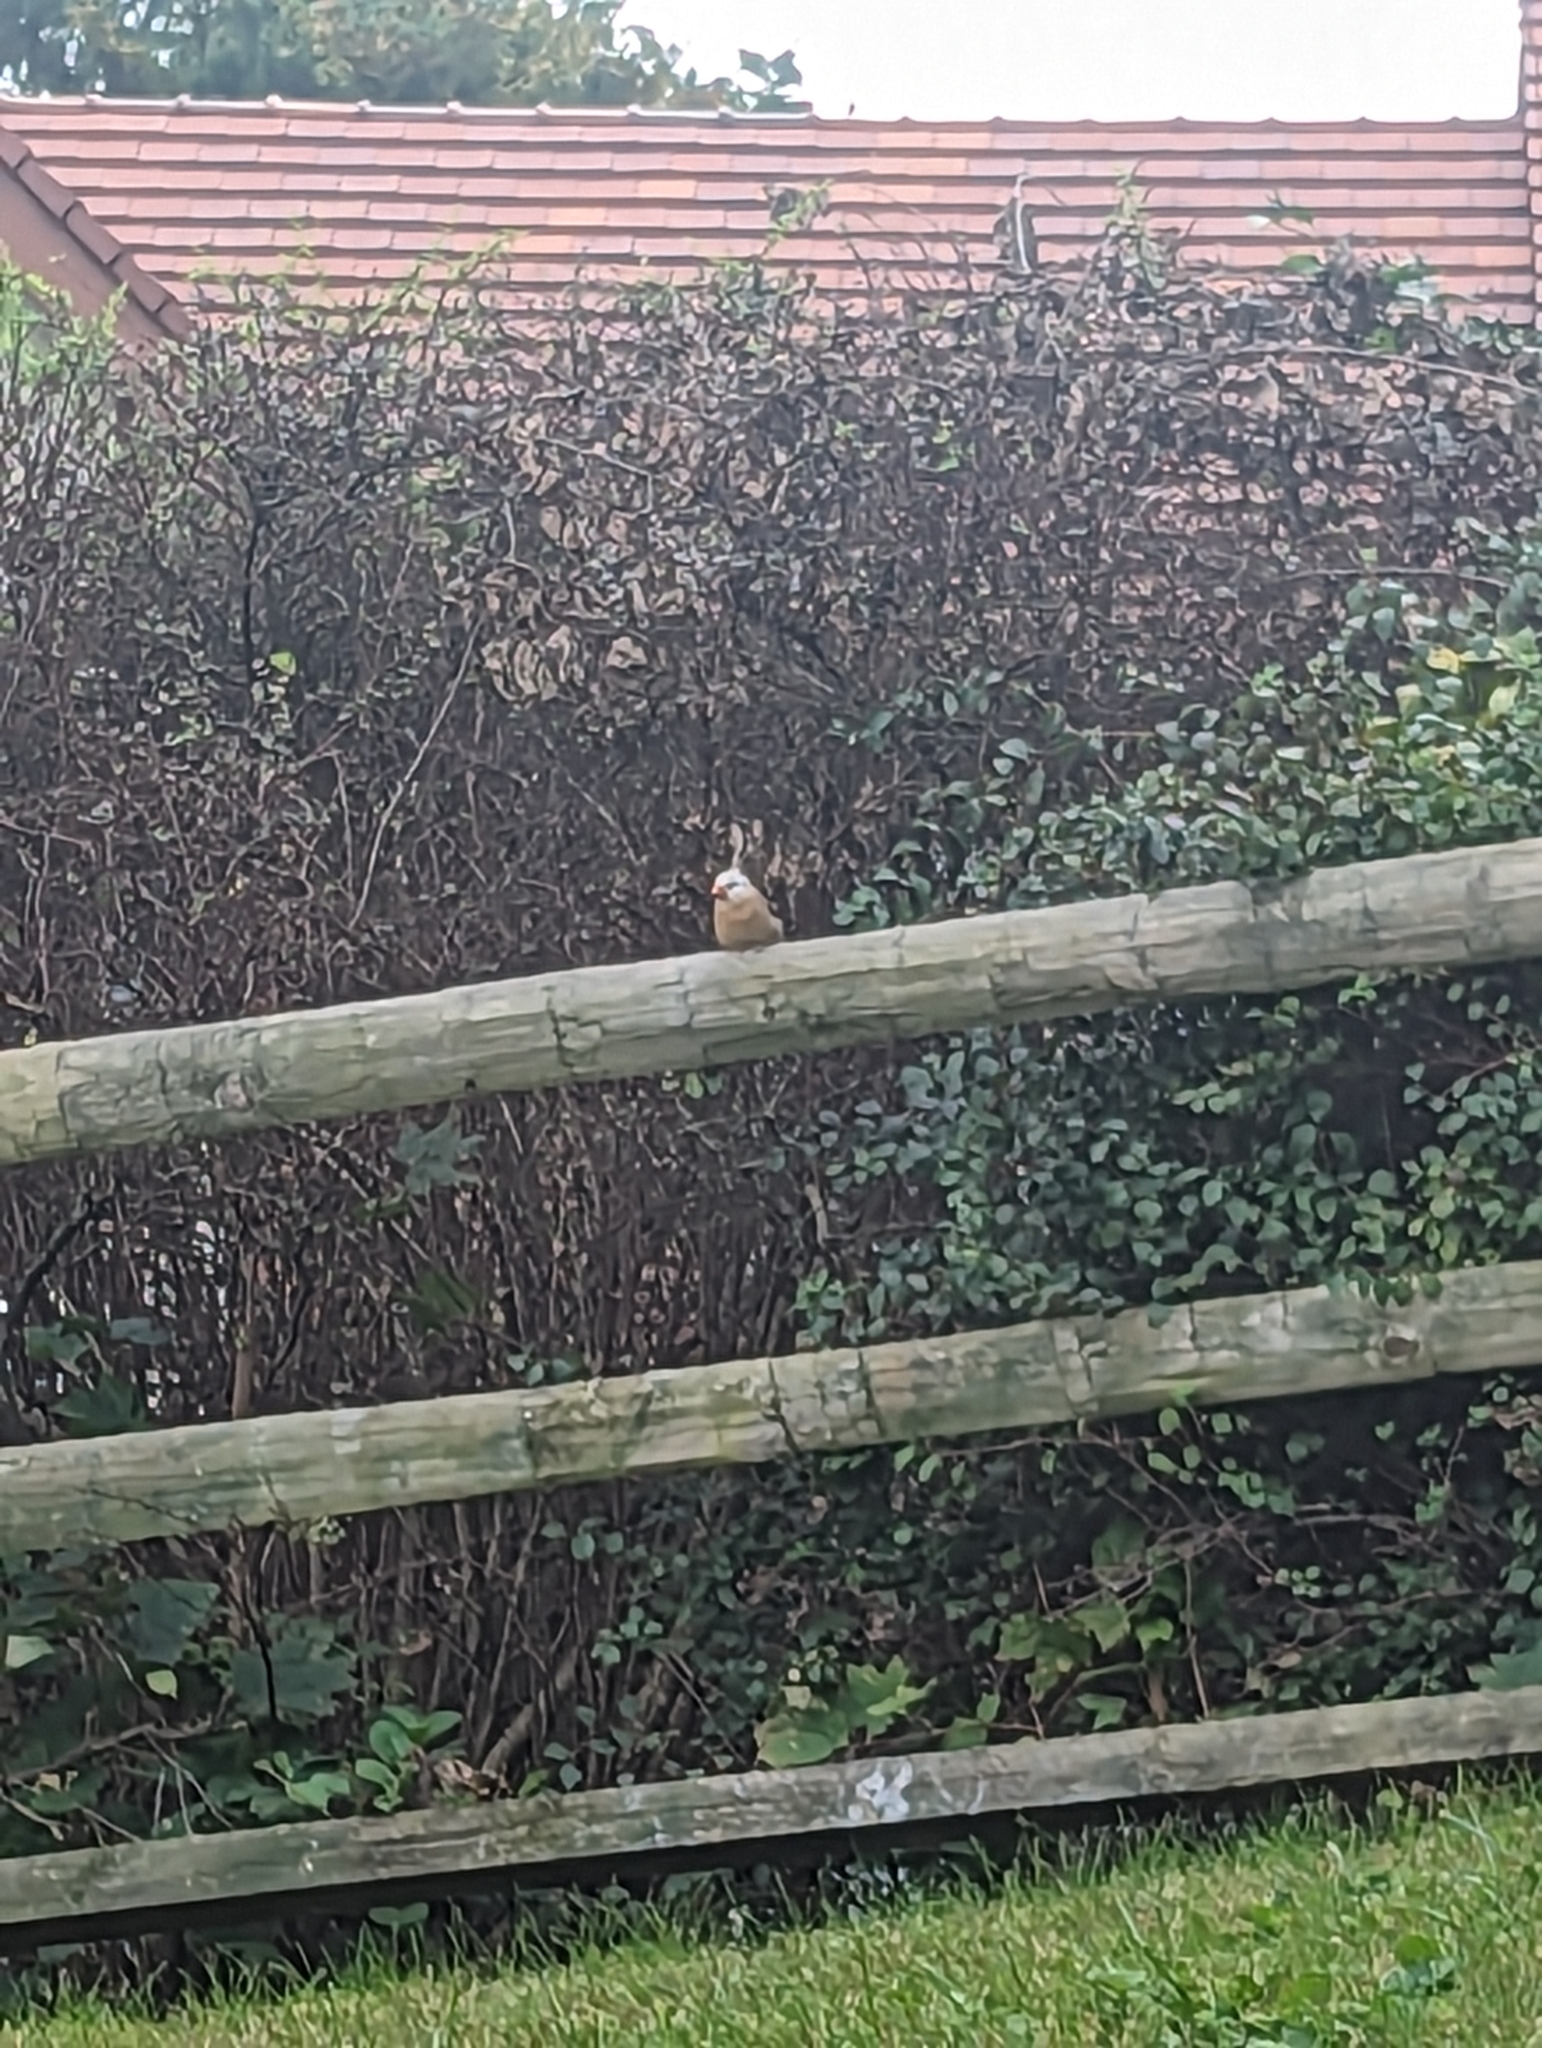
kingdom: Animalia
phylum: Chordata
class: Aves
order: Passeriformes
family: Cardinalidae
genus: Cardinalis
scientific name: Cardinalis cardinalis
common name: Northern cardinal
